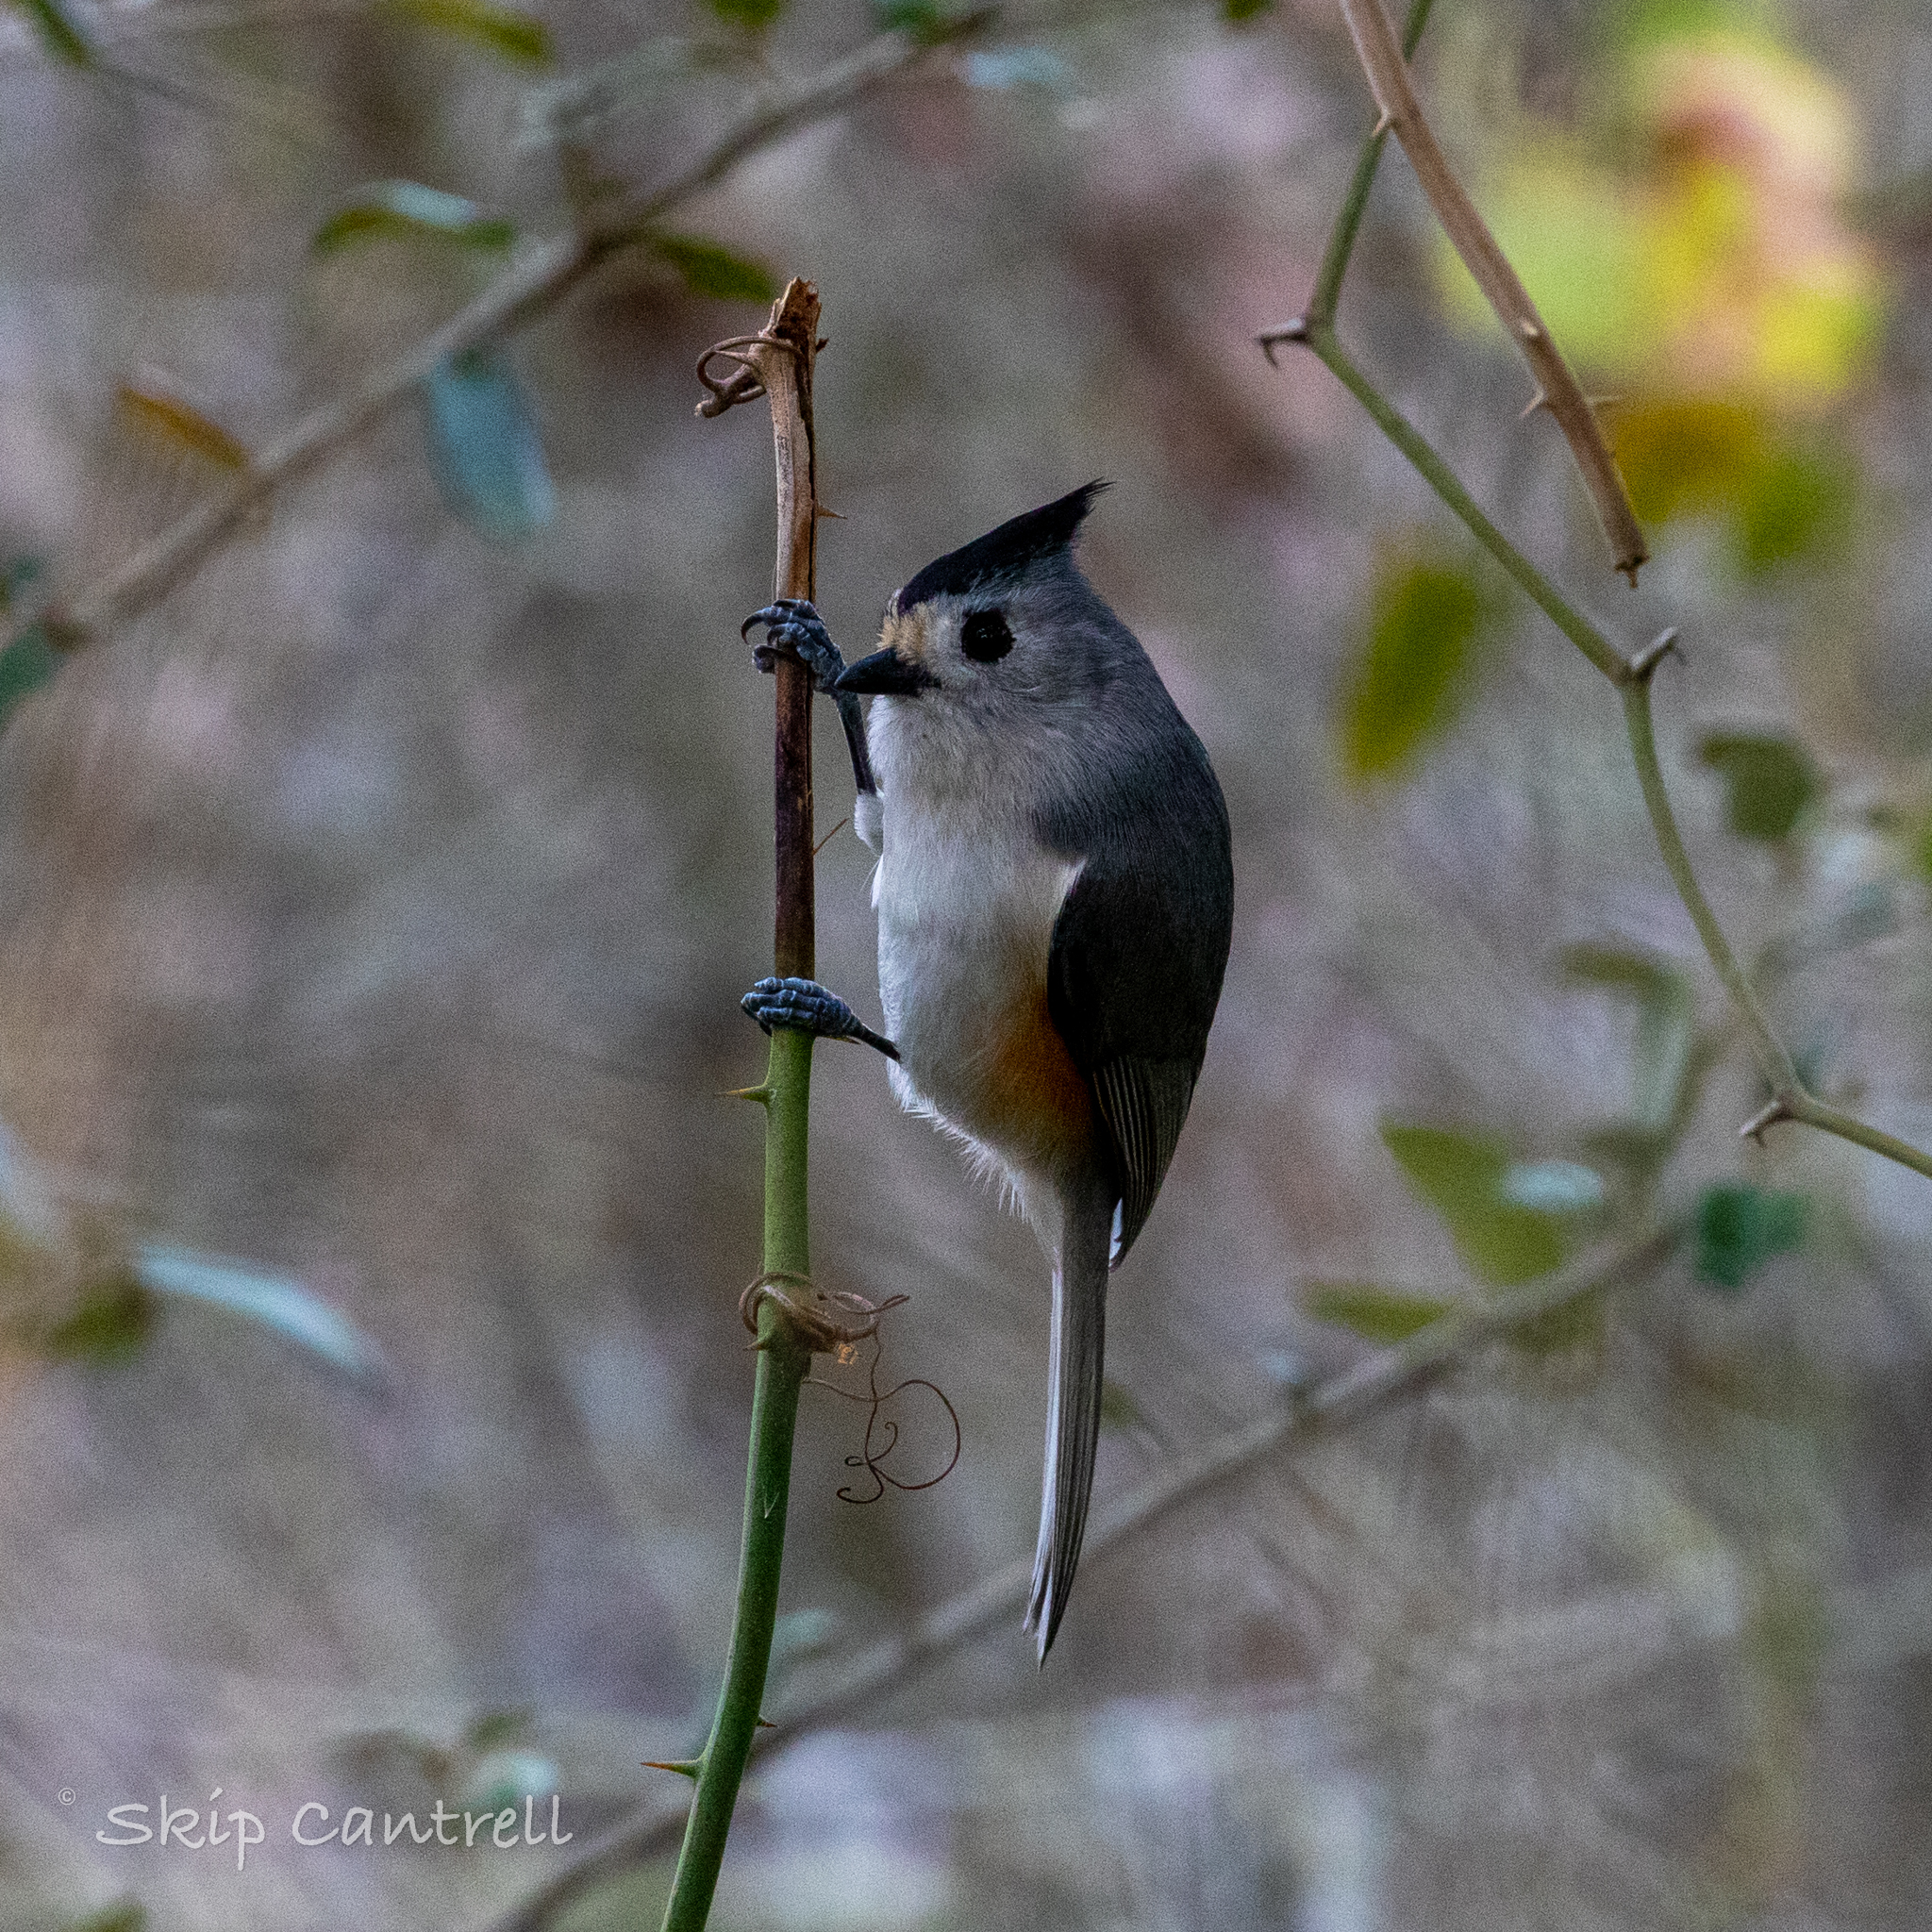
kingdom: Animalia
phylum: Chordata
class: Aves
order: Passeriformes
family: Paridae
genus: Baeolophus
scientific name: Baeolophus atricristatus
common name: Black-crested titmouse
